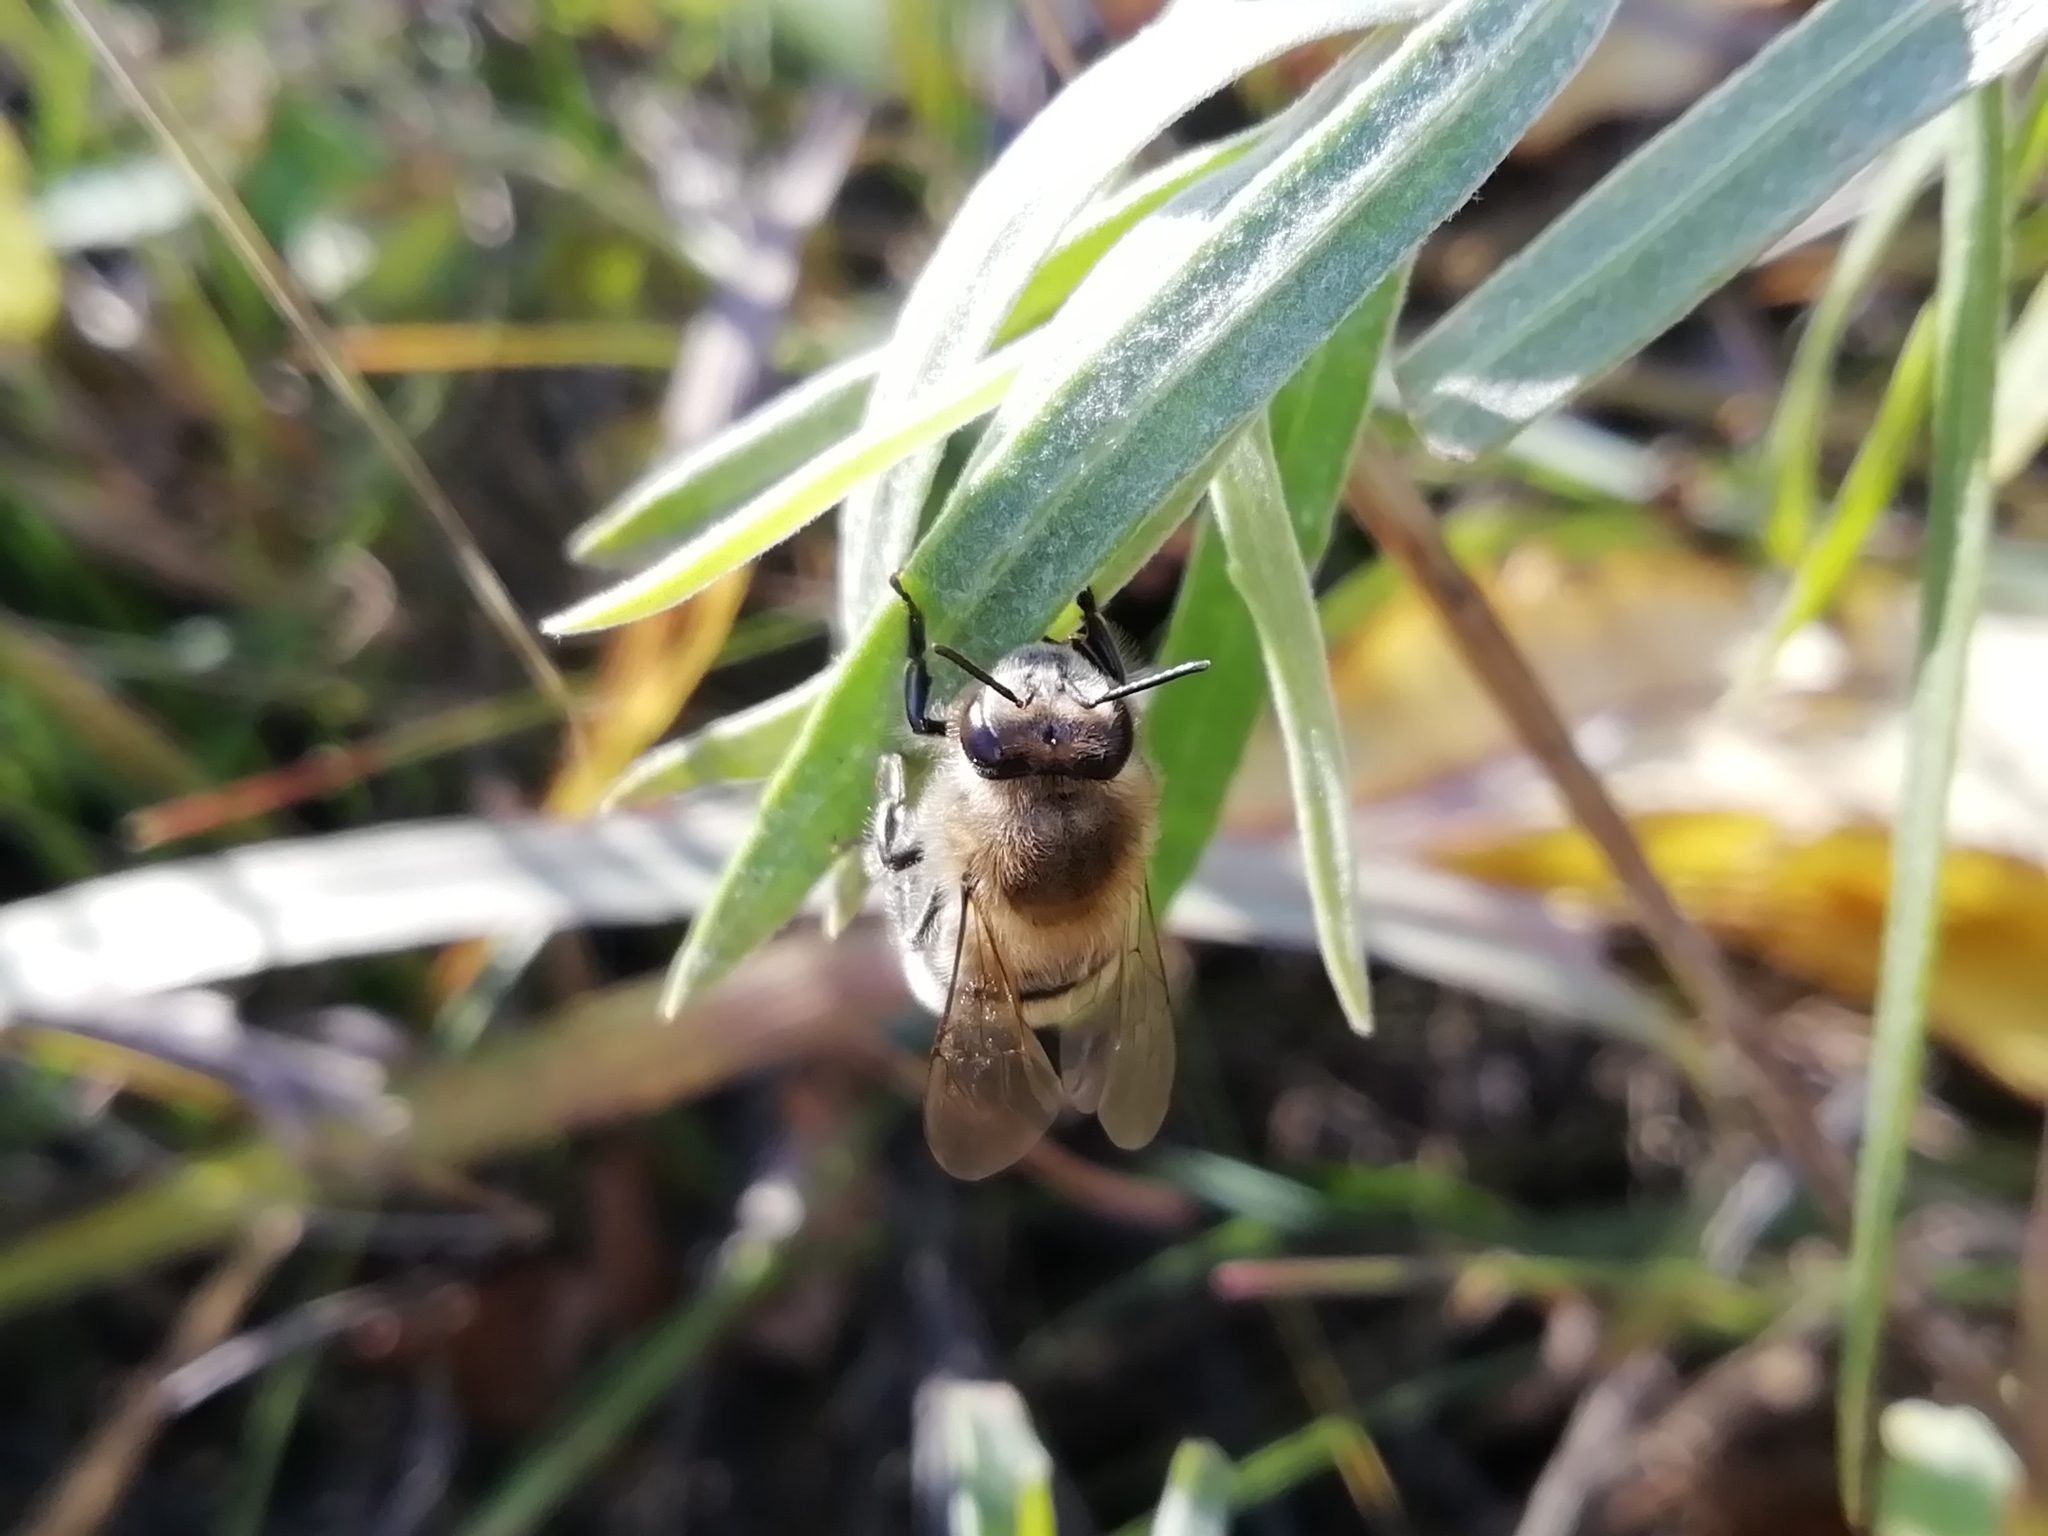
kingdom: Animalia
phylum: Arthropoda
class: Insecta
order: Hymenoptera
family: Apidae
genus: Apis
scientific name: Apis mellifera
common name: Honey bee
